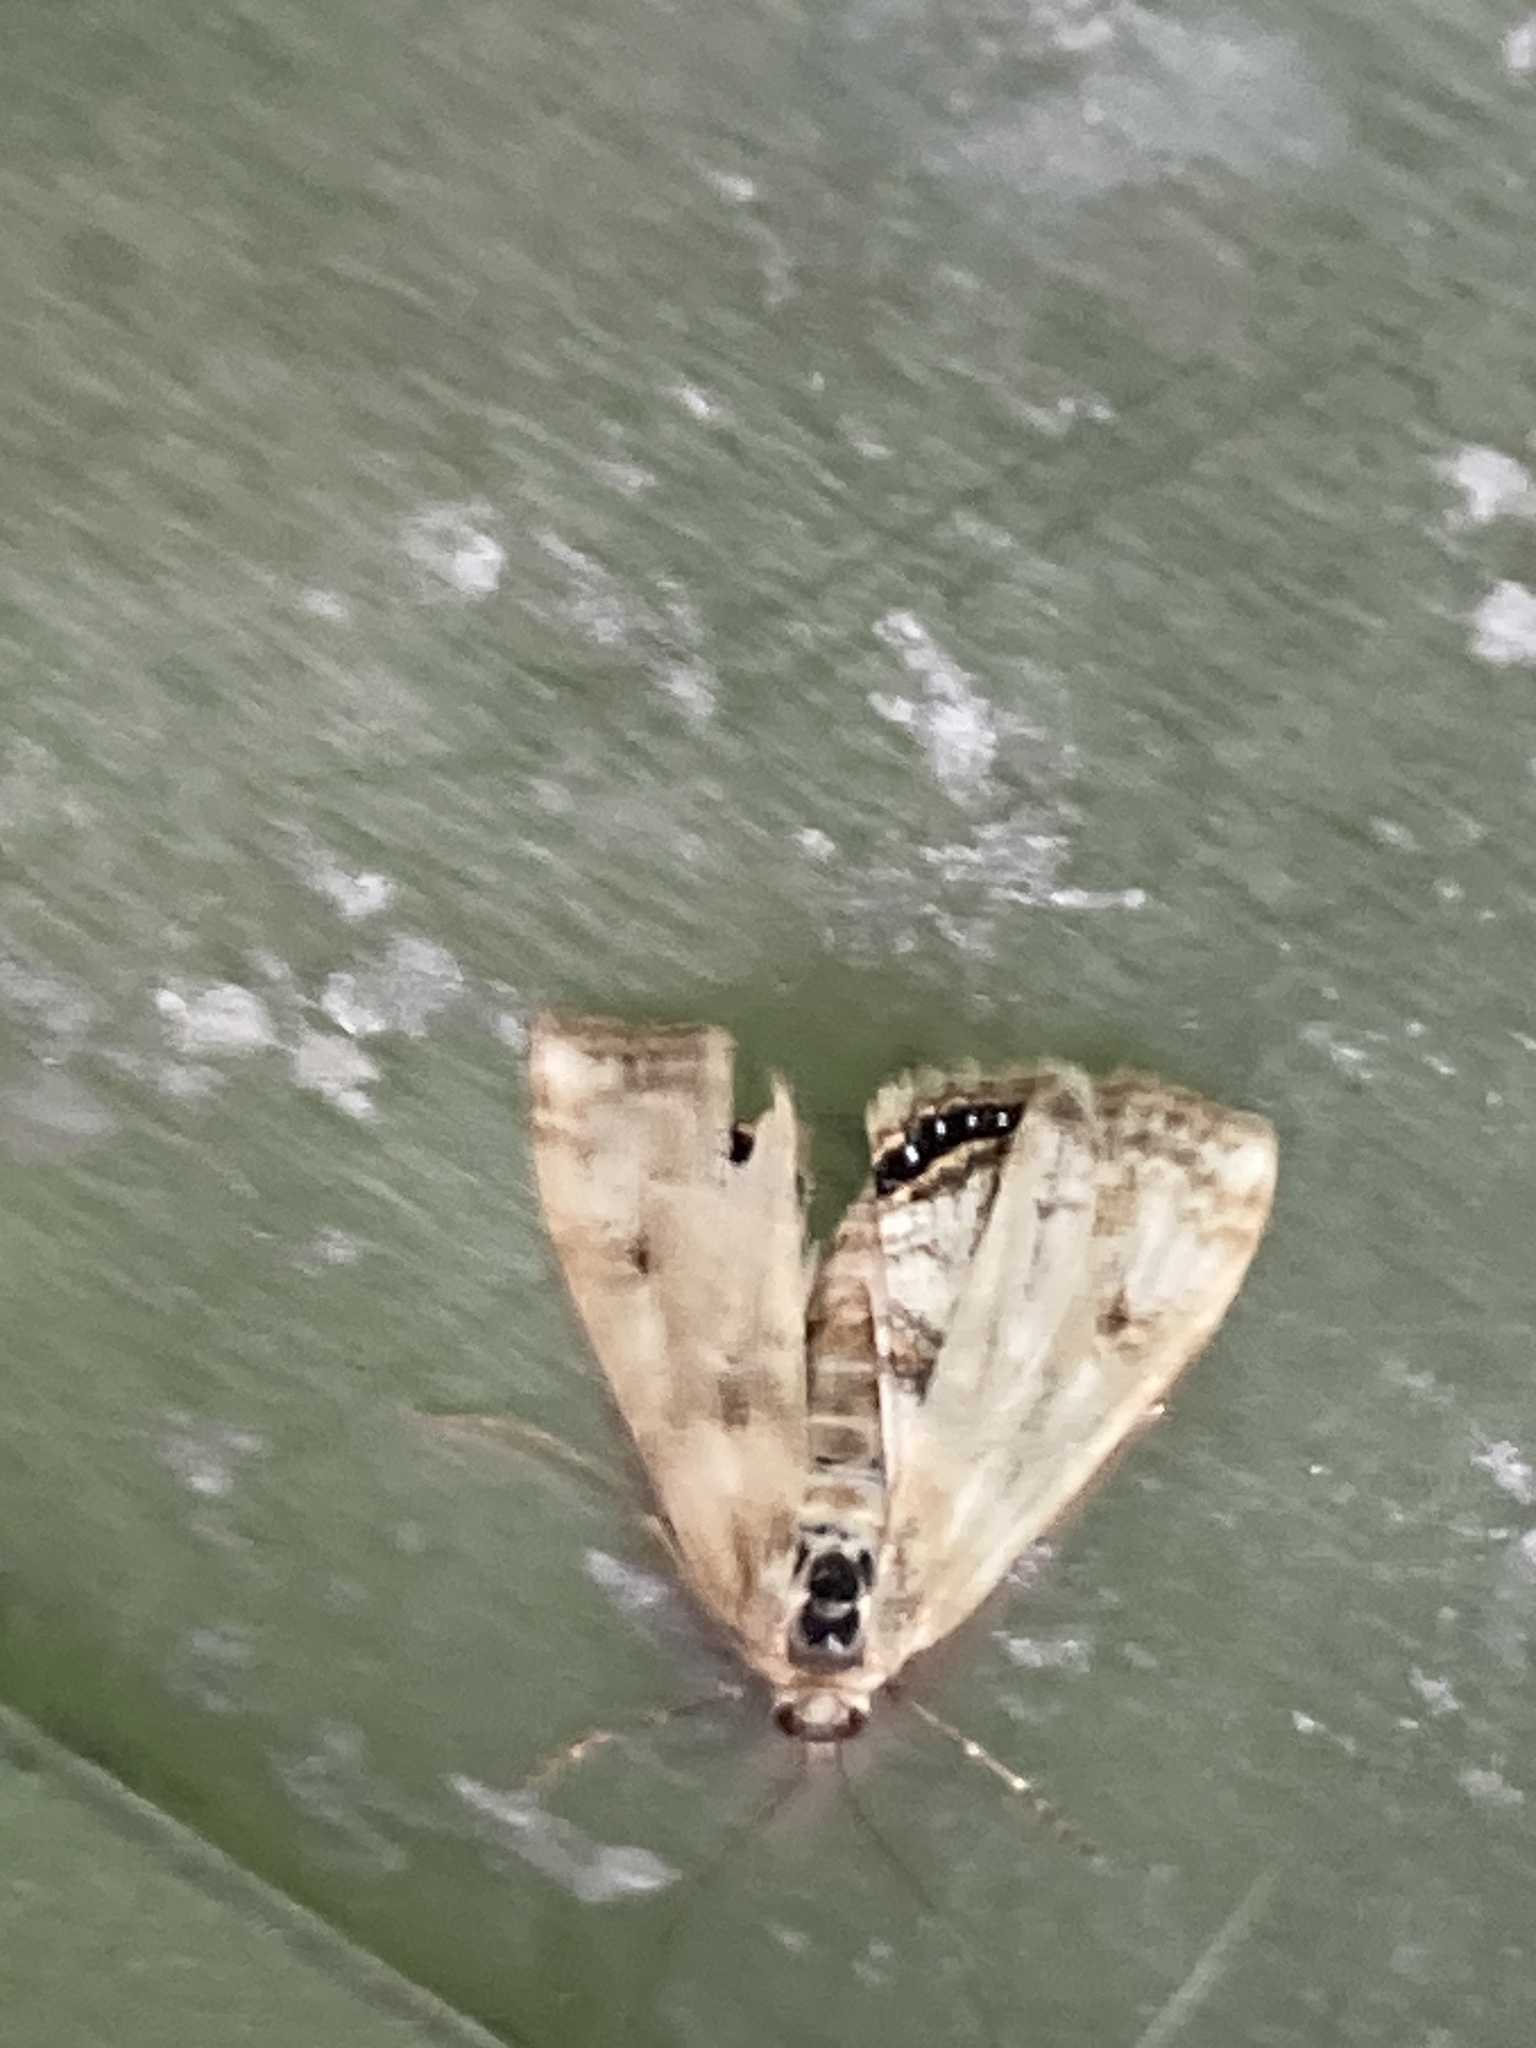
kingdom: Animalia
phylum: Arthropoda
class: Insecta
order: Lepidoptera
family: Crambidae
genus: Cataclysta
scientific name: Cataclysta lemnata
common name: Small china-mark
